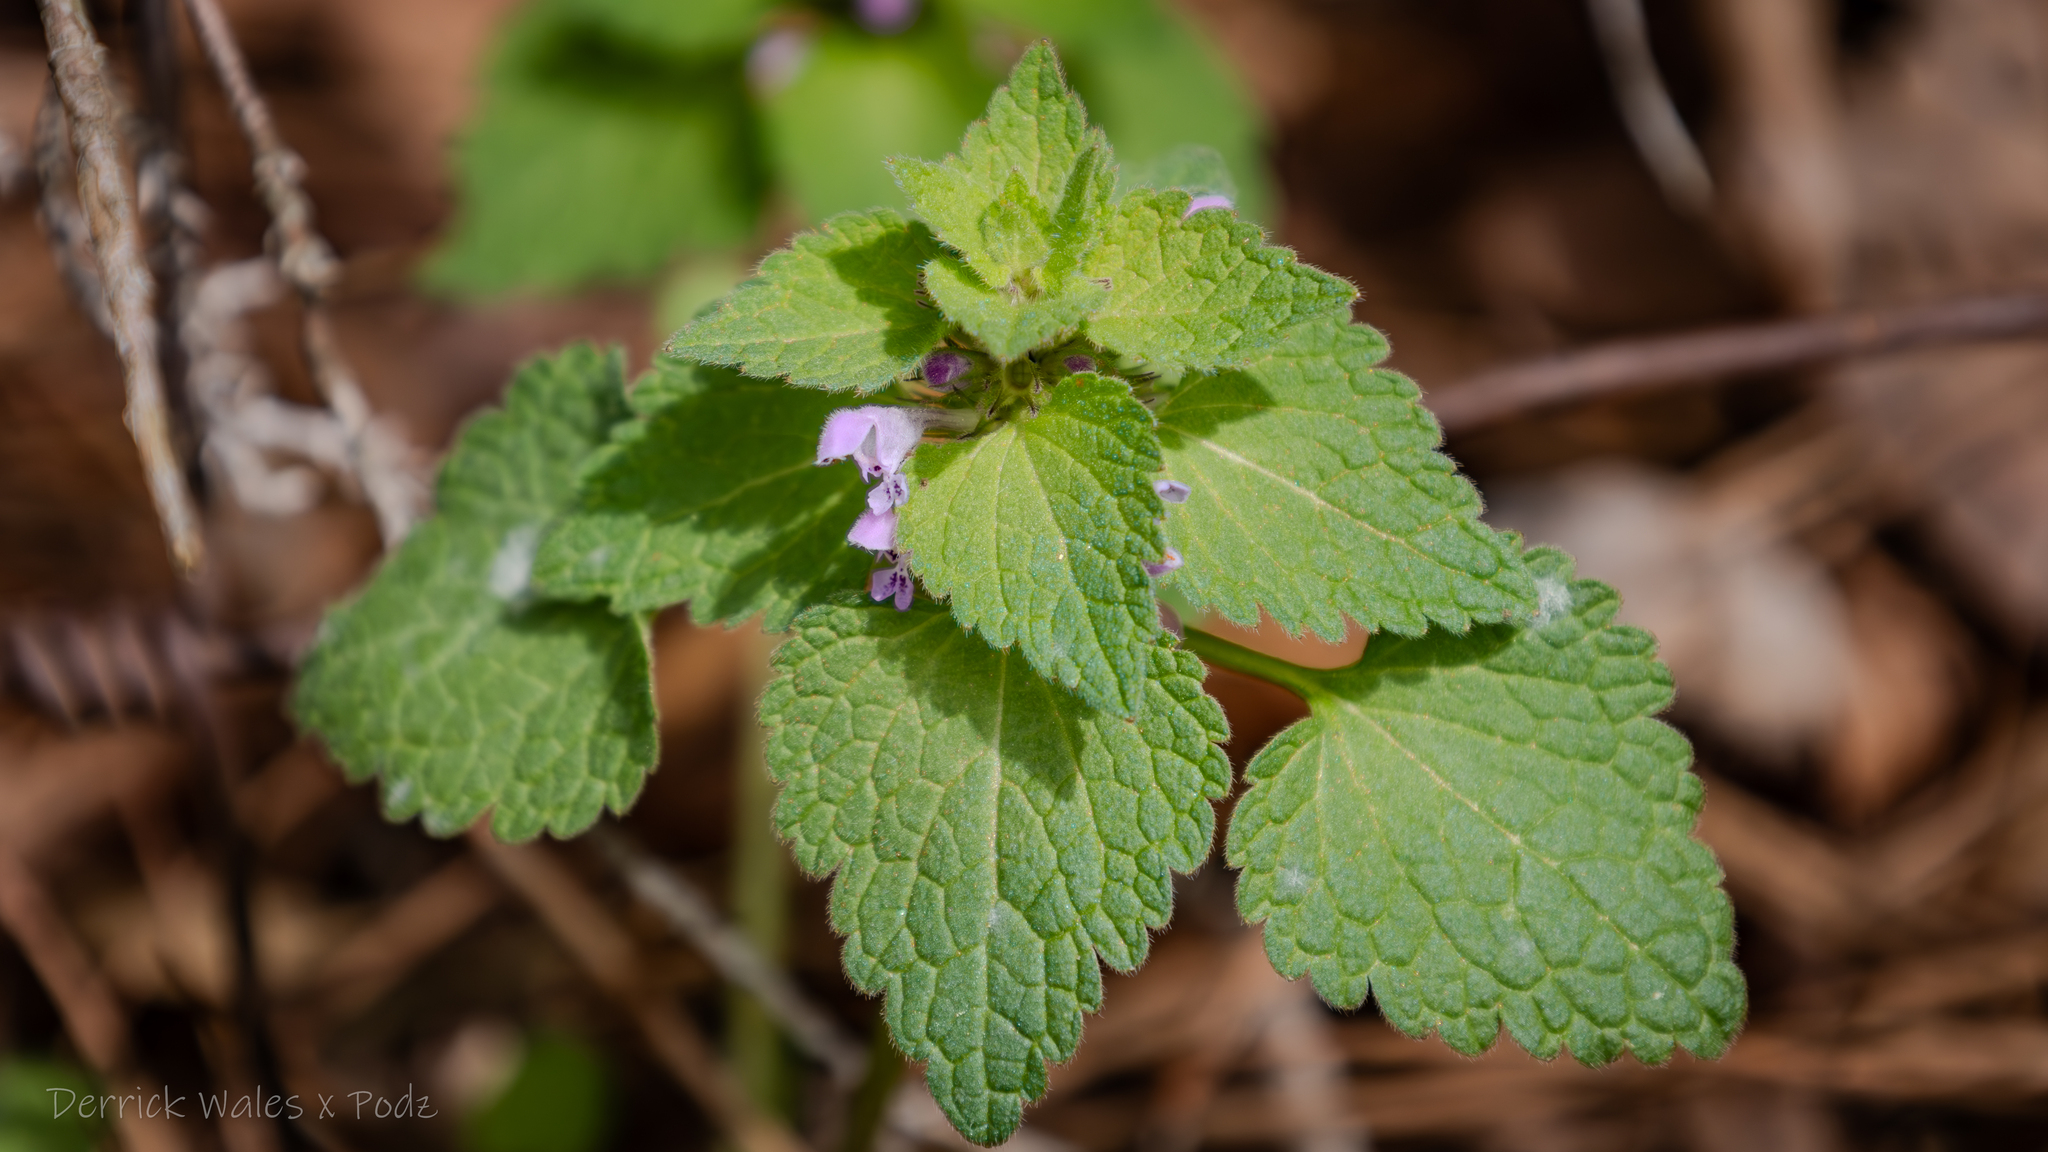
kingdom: Plantae
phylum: Tracheophyta
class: Magnoliopsida
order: Lamiales
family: Lamiaceae
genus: Lamium
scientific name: Lamium purpureum
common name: Red dead-nettle
